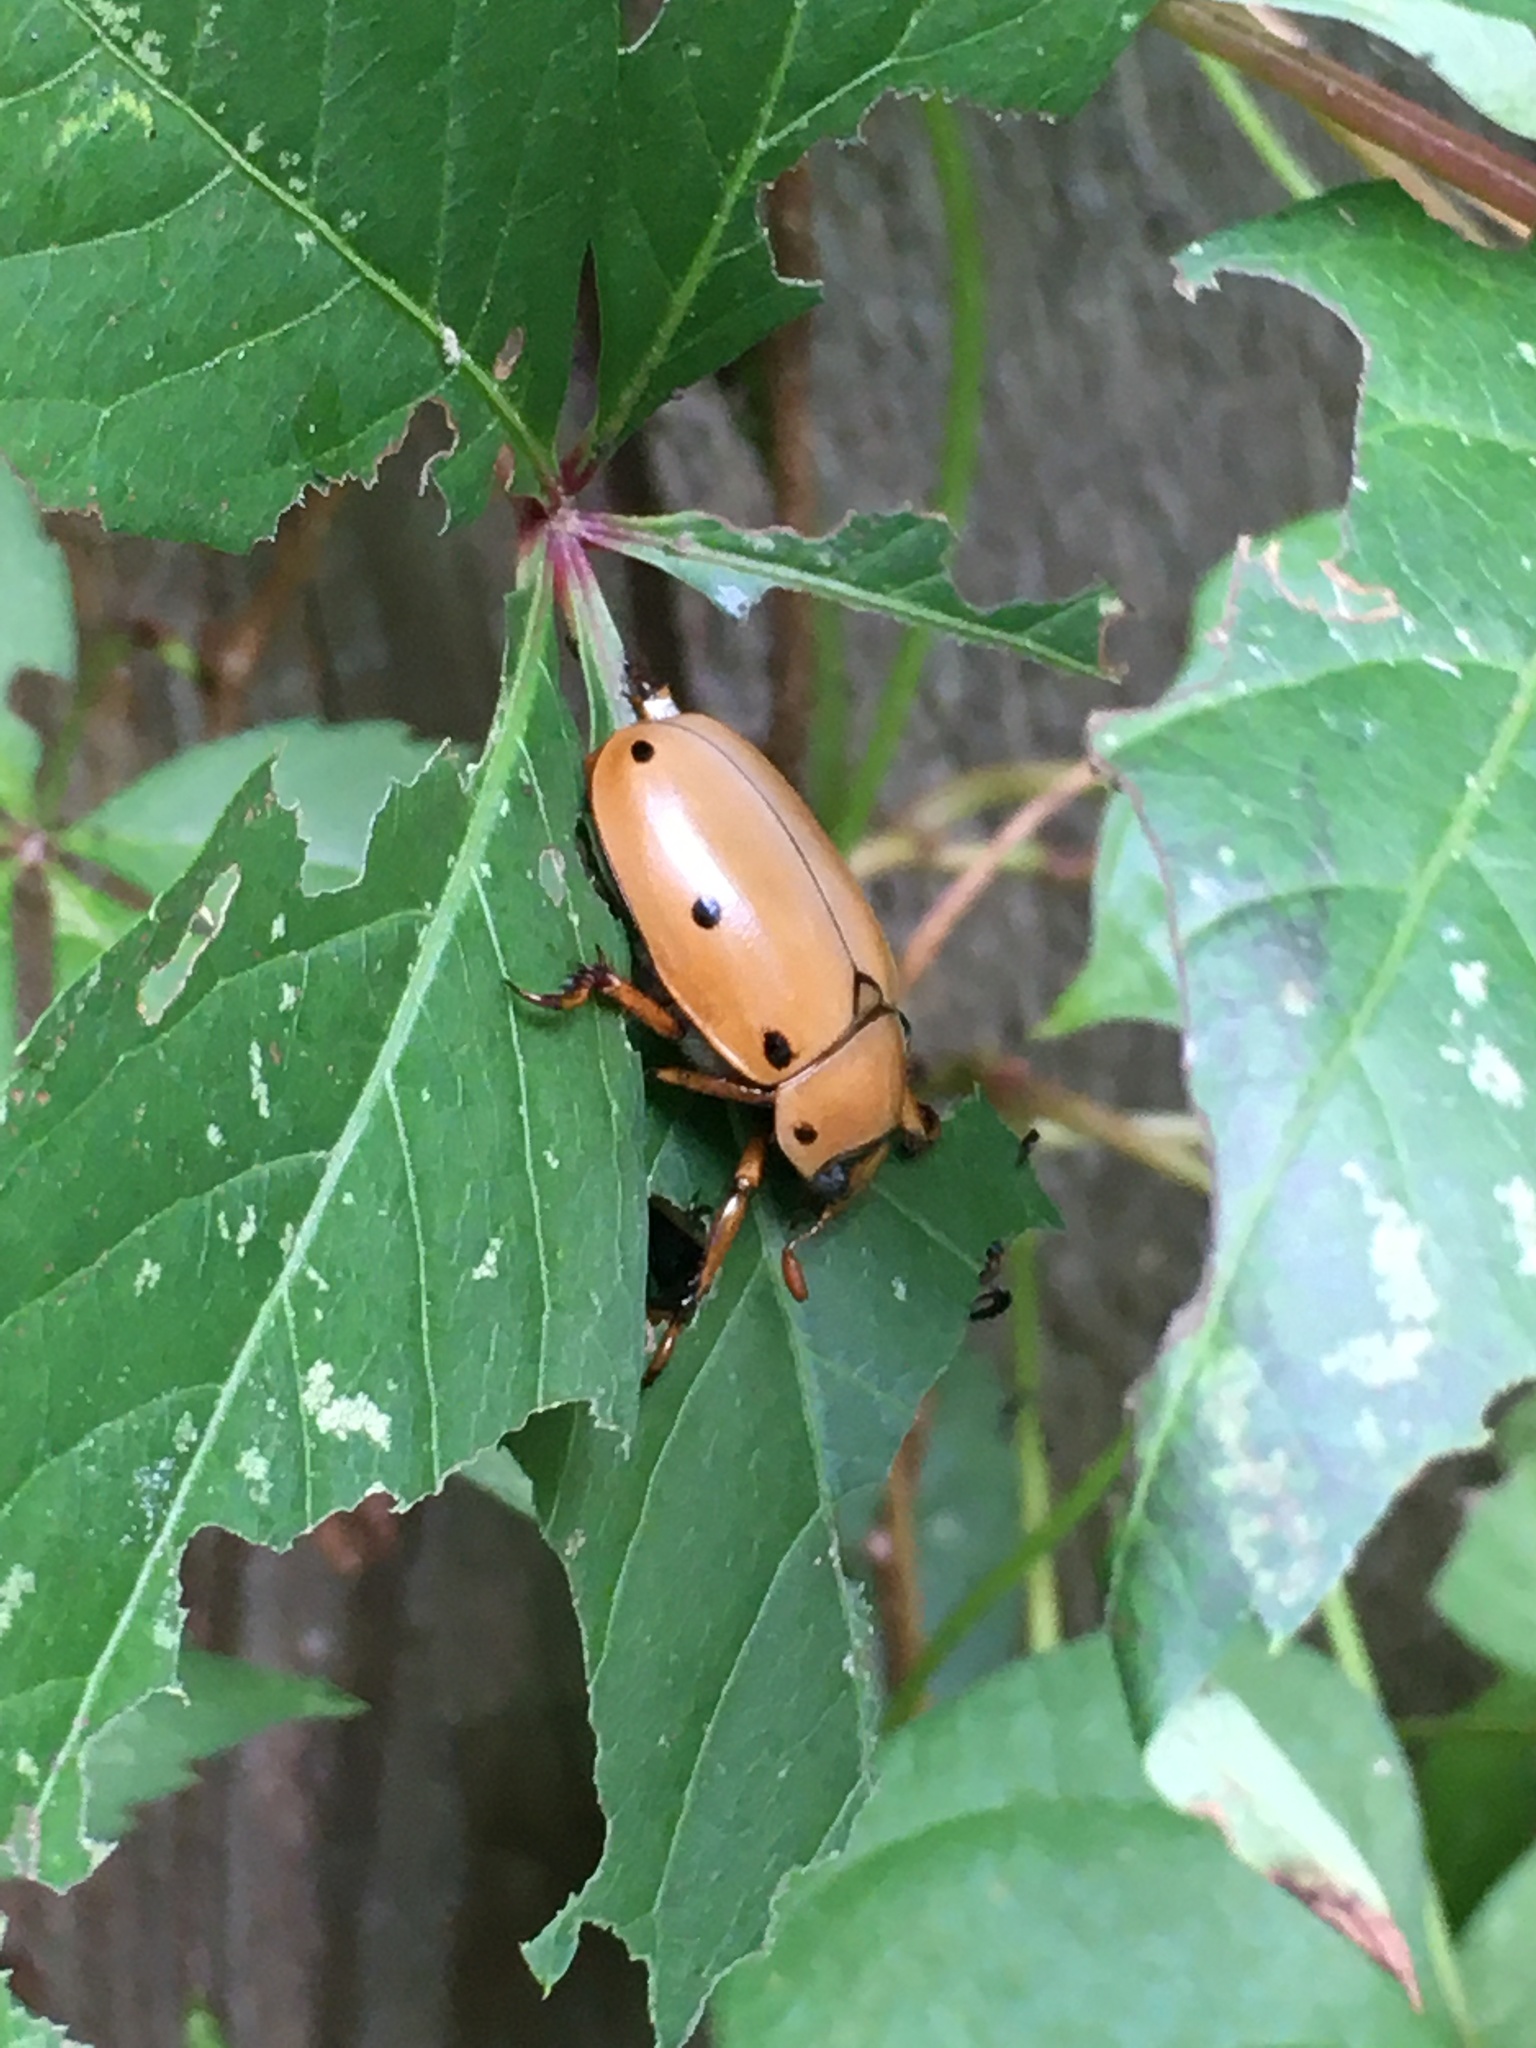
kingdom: Animalia
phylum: Arthropoda
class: Insecta
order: Coleoptera
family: Scarabaeidae
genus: Pelidnota
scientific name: Pelidnota punctata
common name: Grapevine beetle
